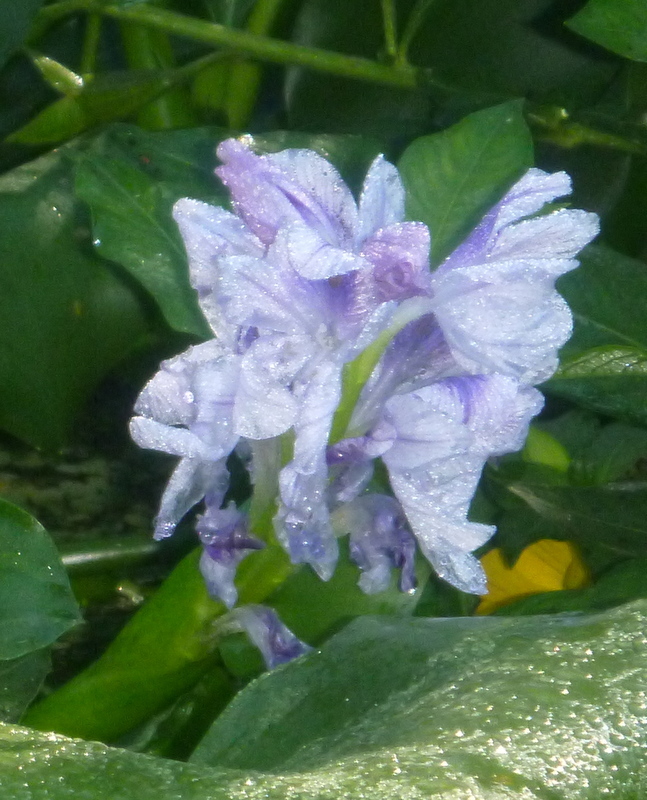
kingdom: Plantae
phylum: Tracheophyta
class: Liliopsida
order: Commelinales
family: Pontederiaceae
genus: Pontederia
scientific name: Pontederia crassipes
